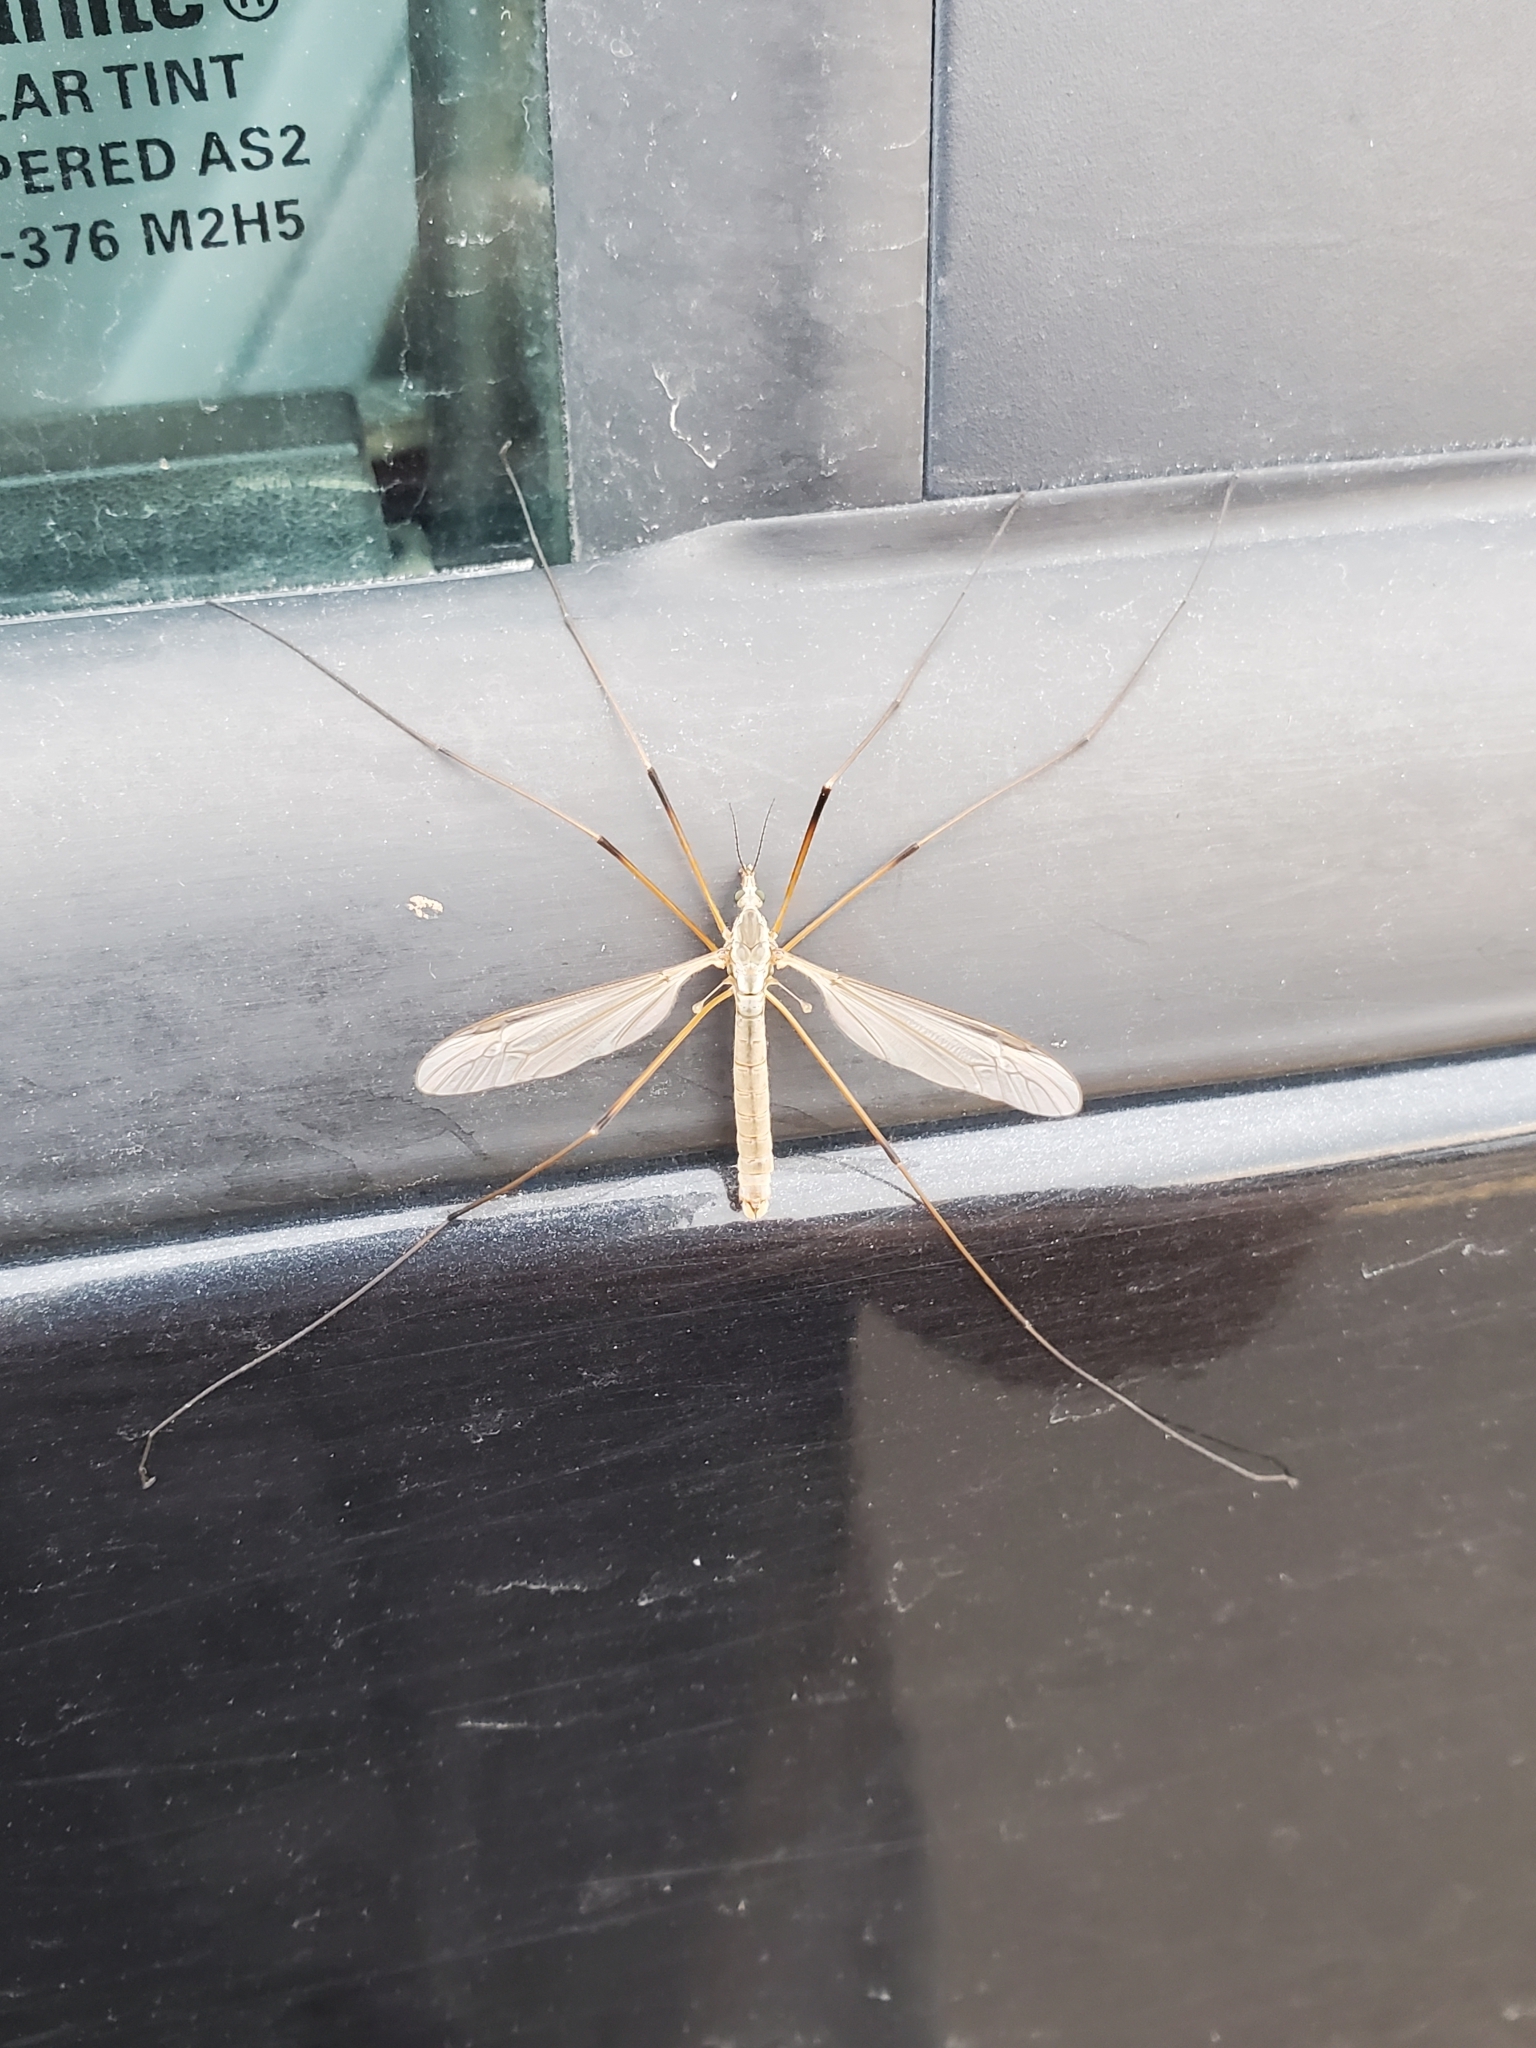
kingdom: Animalia
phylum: Arthropoda
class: Insecta
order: Diptera
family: Tipulidae
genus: Tipula
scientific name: Tipula paludosa
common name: European cranefly
